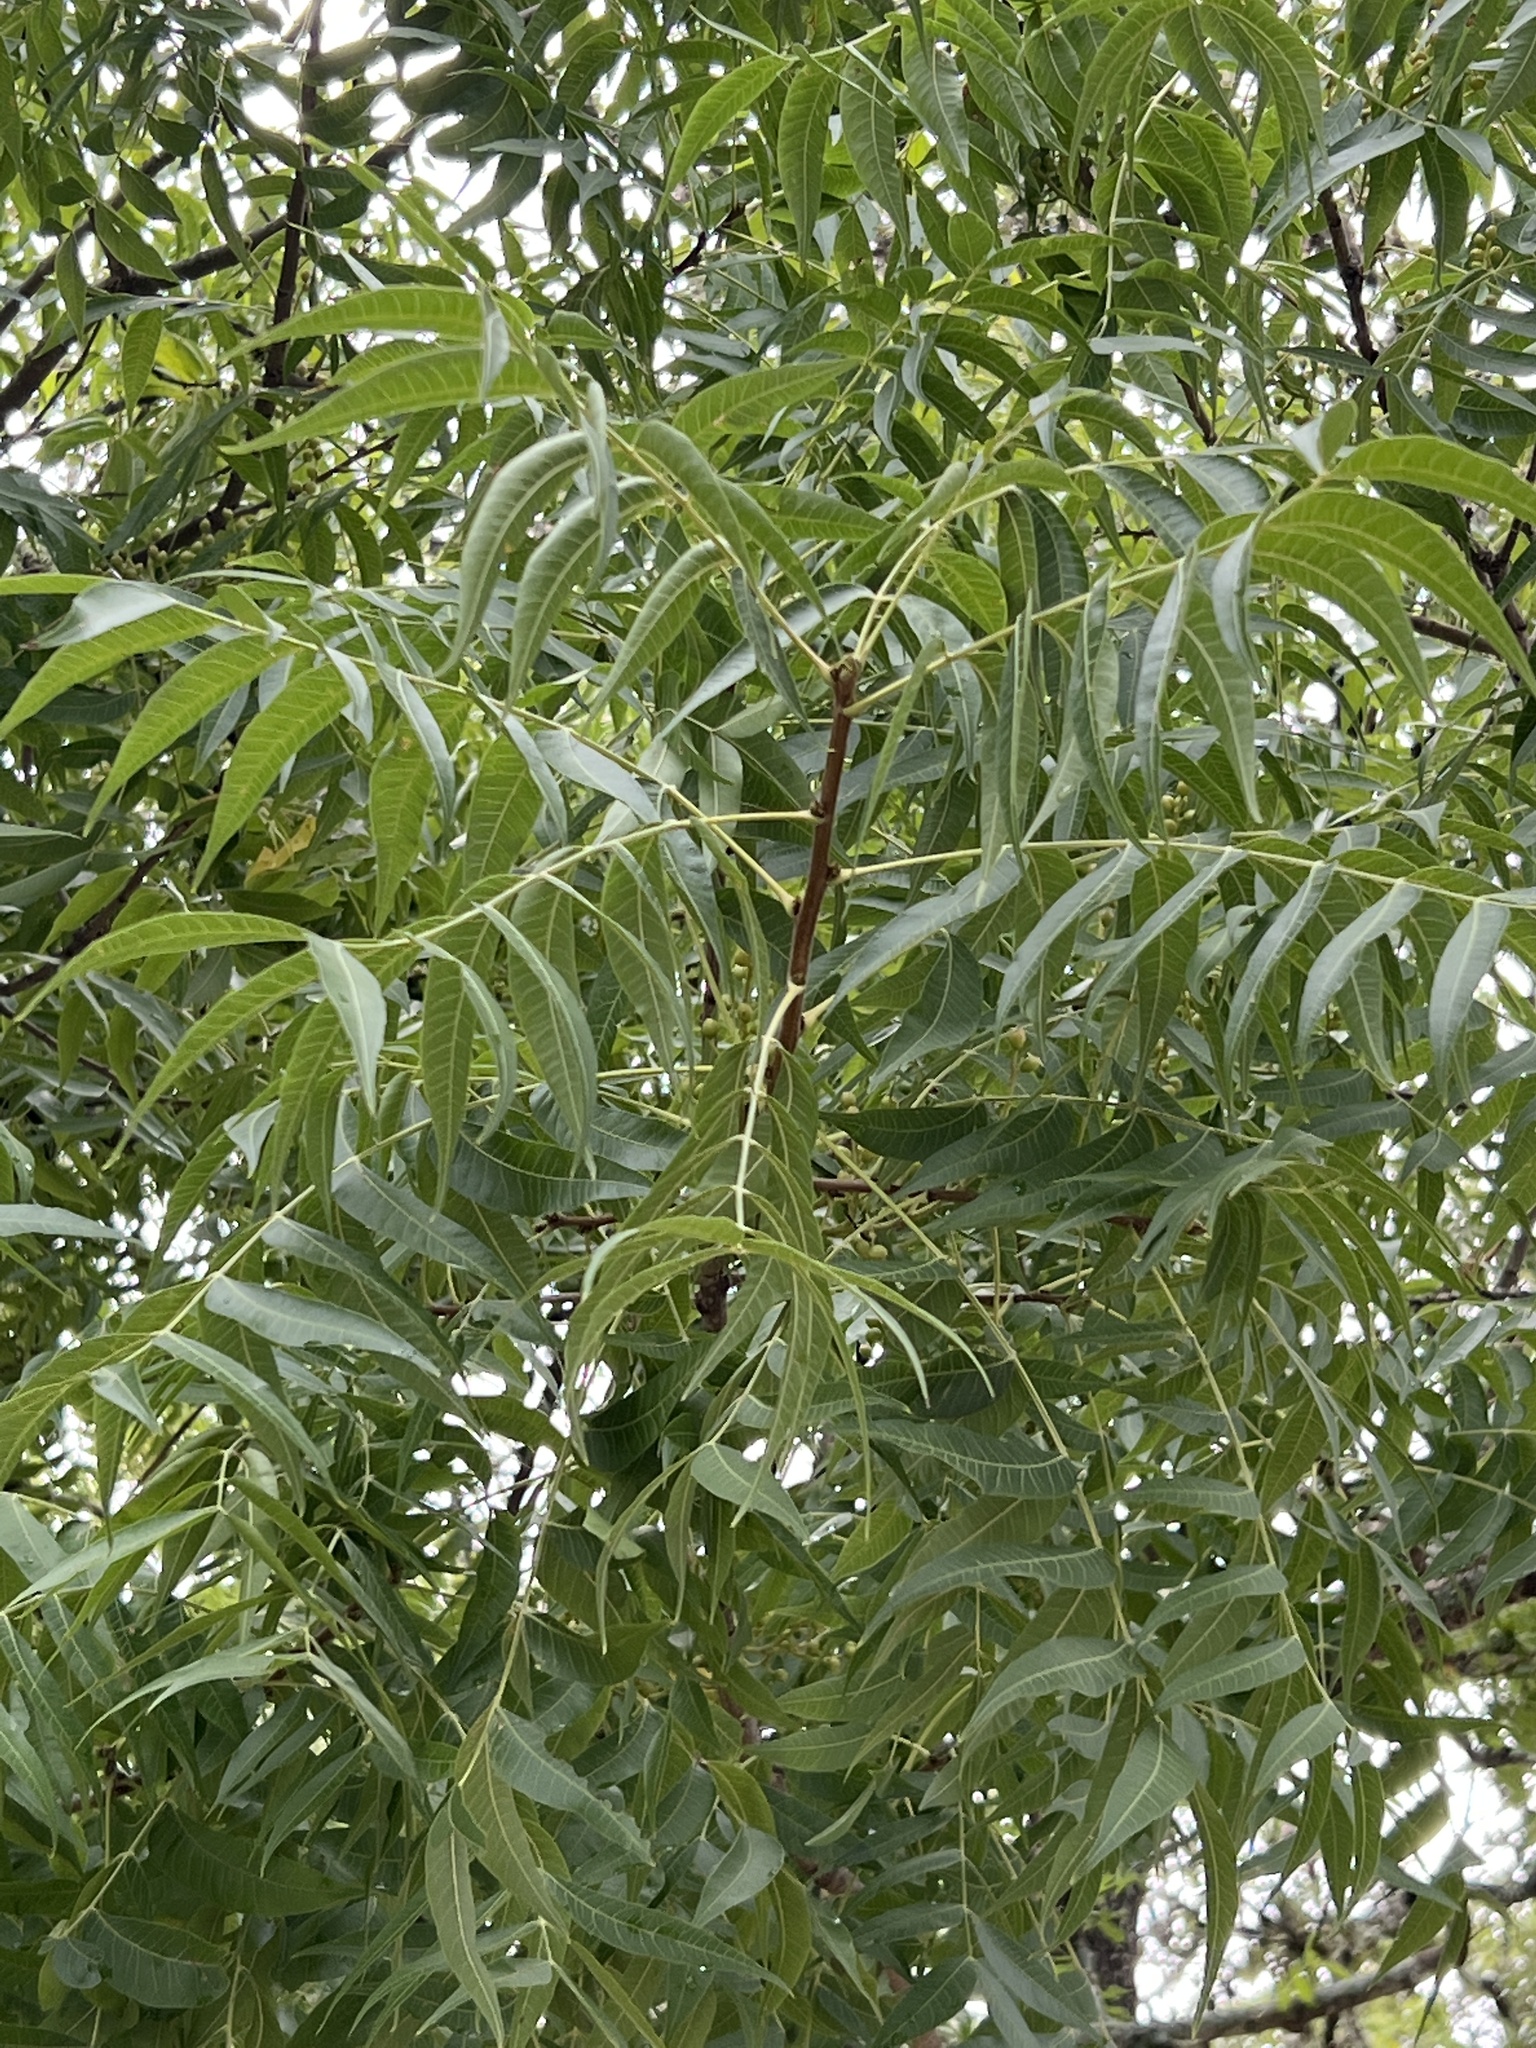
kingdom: Plantae
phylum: Tracheophyta
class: Magnoliopsida
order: Fagales
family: Juglandaceae
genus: Carya
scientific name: Carya illinoinensis
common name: Pecan
